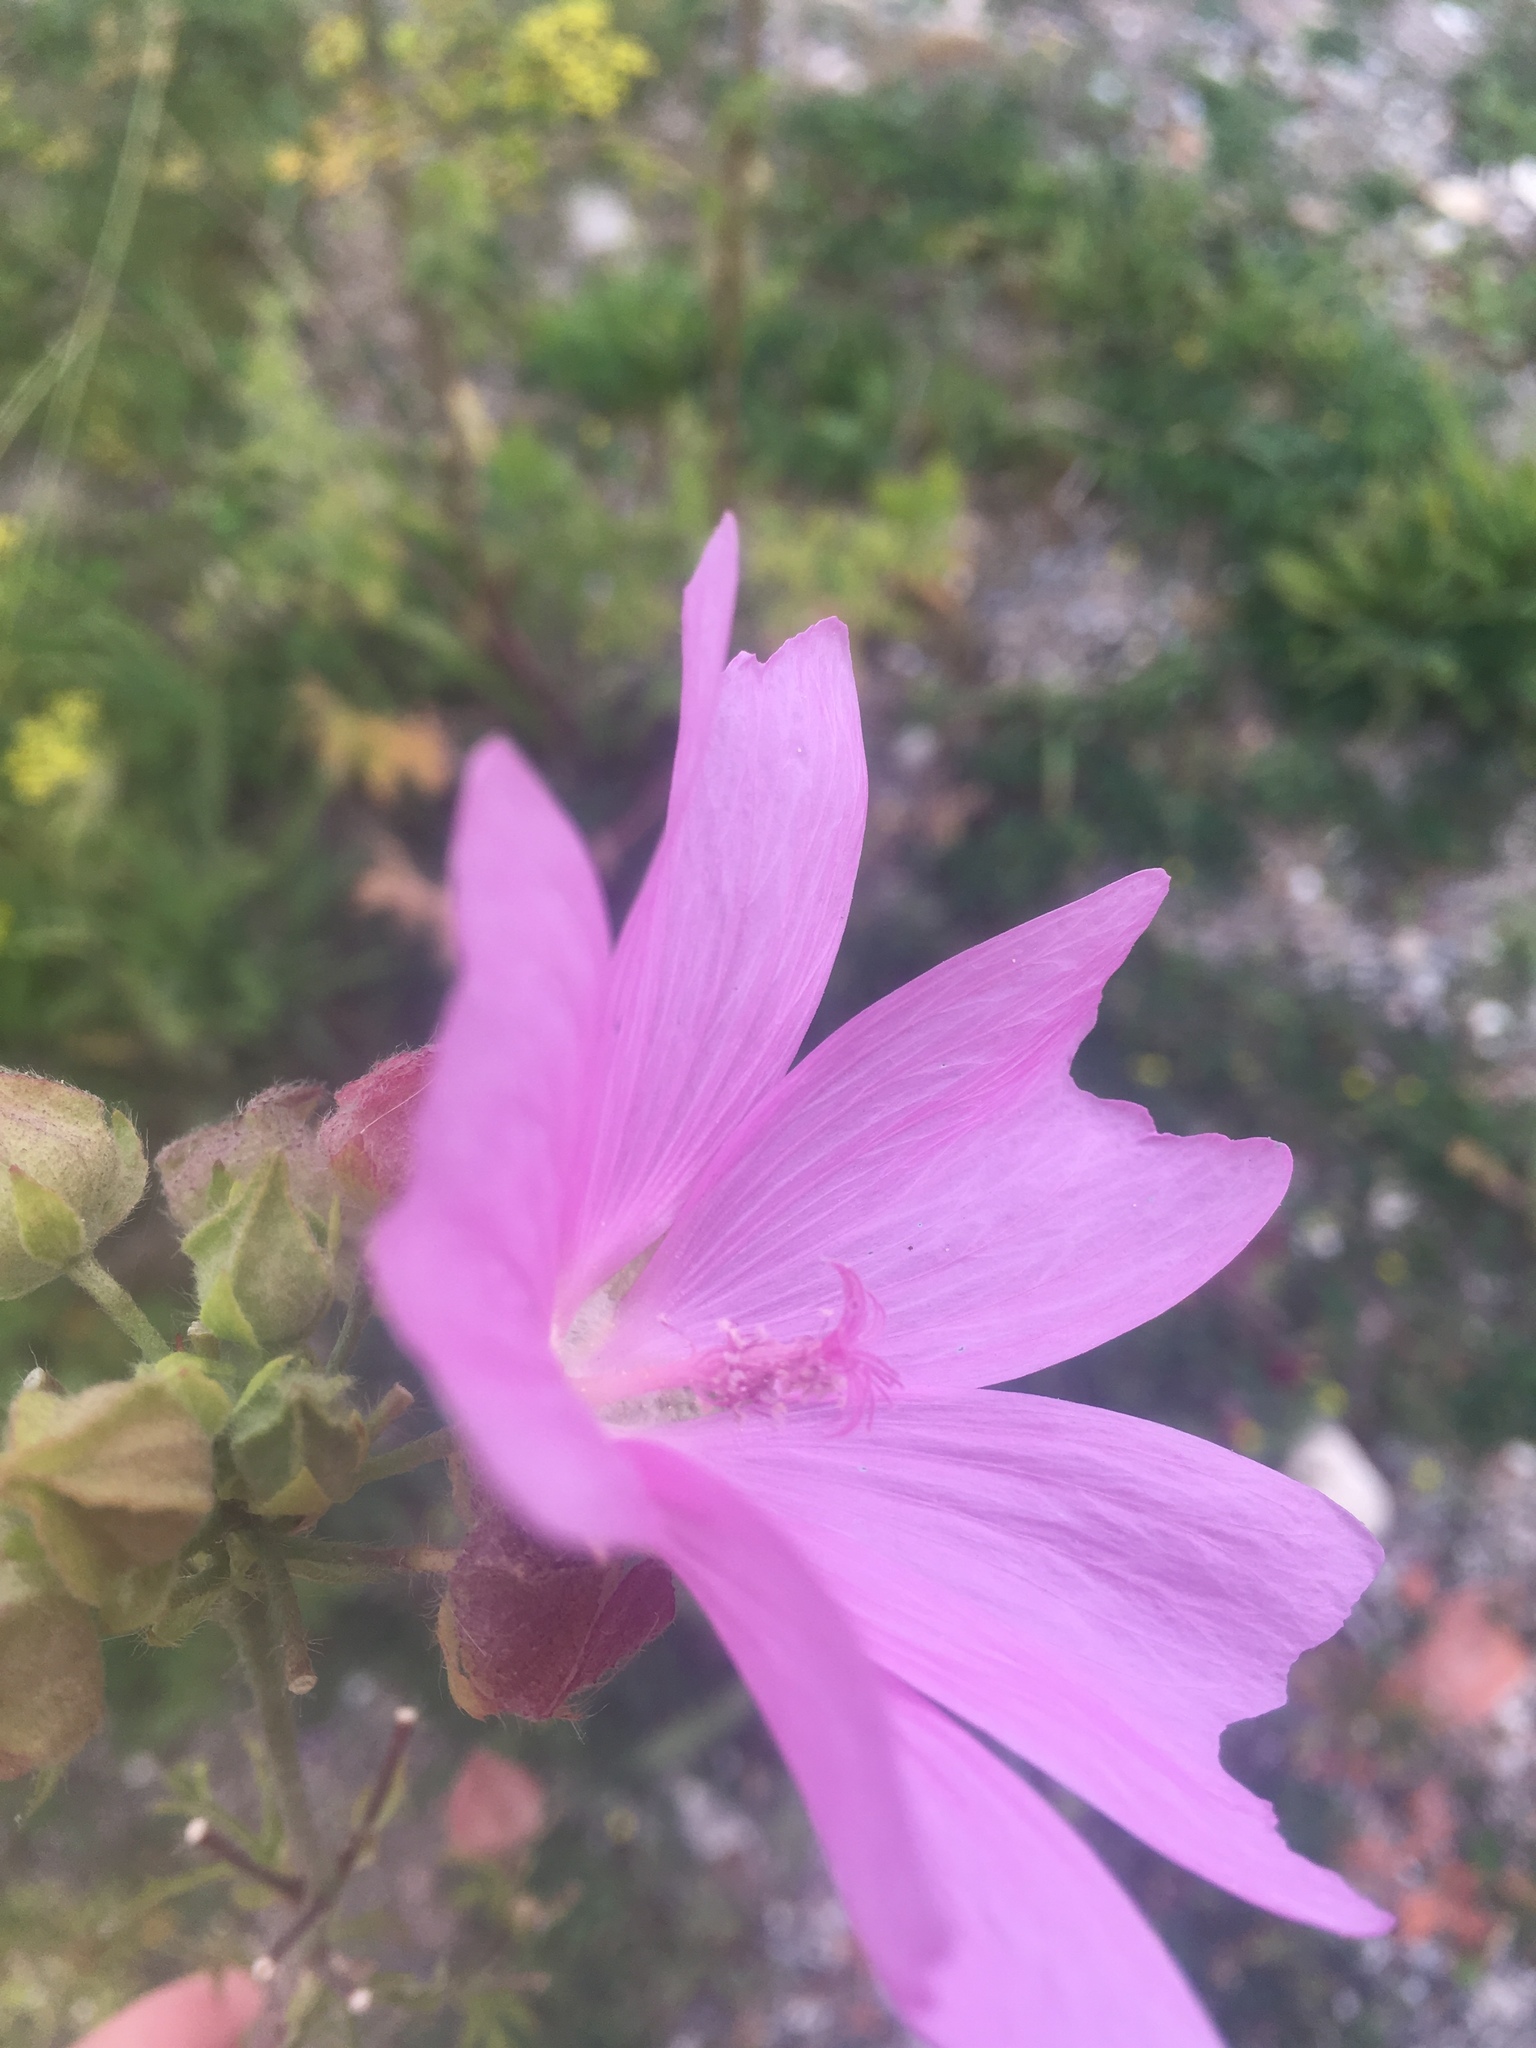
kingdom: Plantae
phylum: Tracheophyta
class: Magnoliopsida
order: Malvales
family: Malvaceae
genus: Malva
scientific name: Malva moschata
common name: Musk mallow
